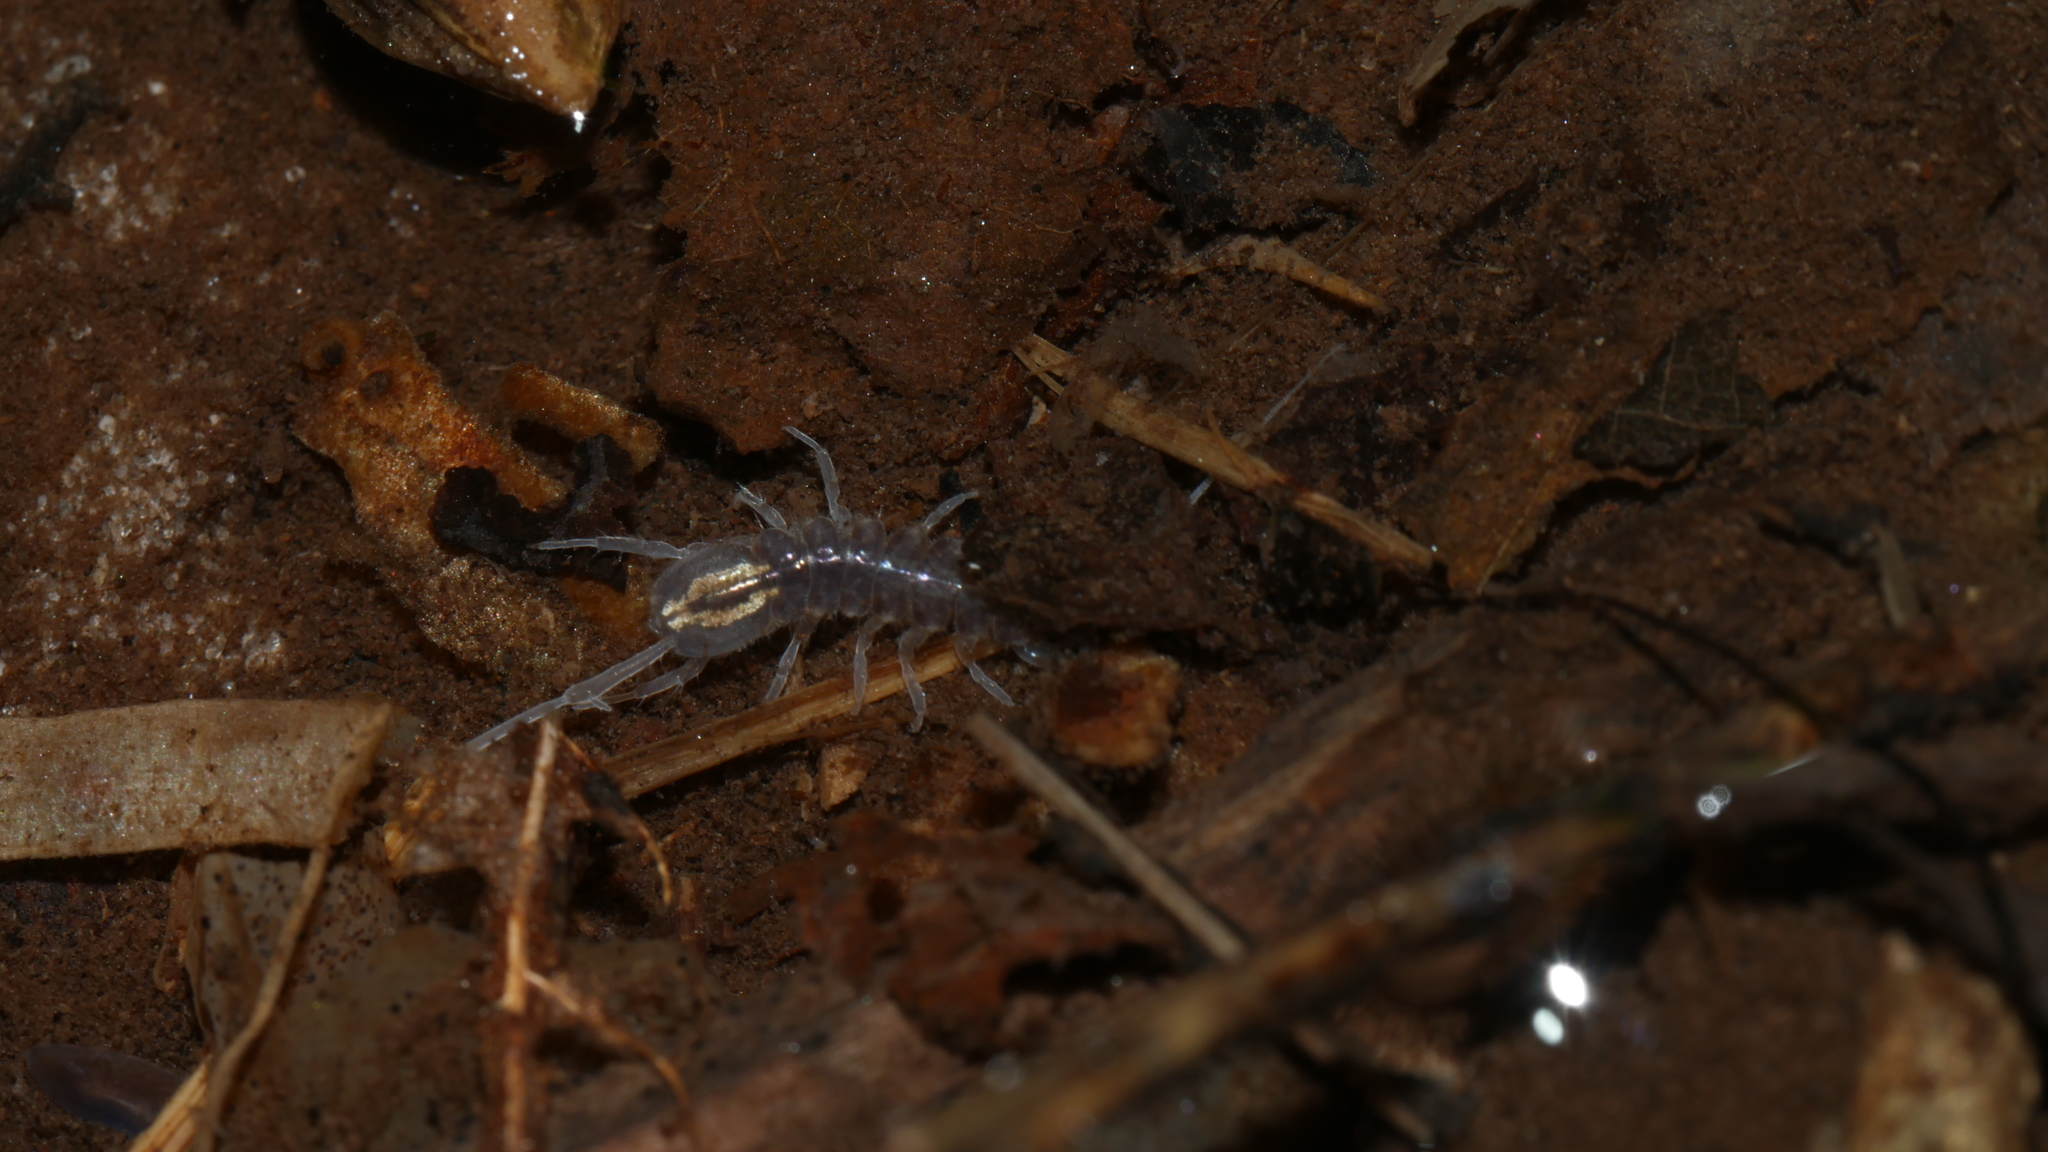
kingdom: Animalia
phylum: Arthropoda
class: Malacostraca
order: Isopoda
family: Asellidae
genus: Caecidotea
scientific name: Caecidotea nodula
